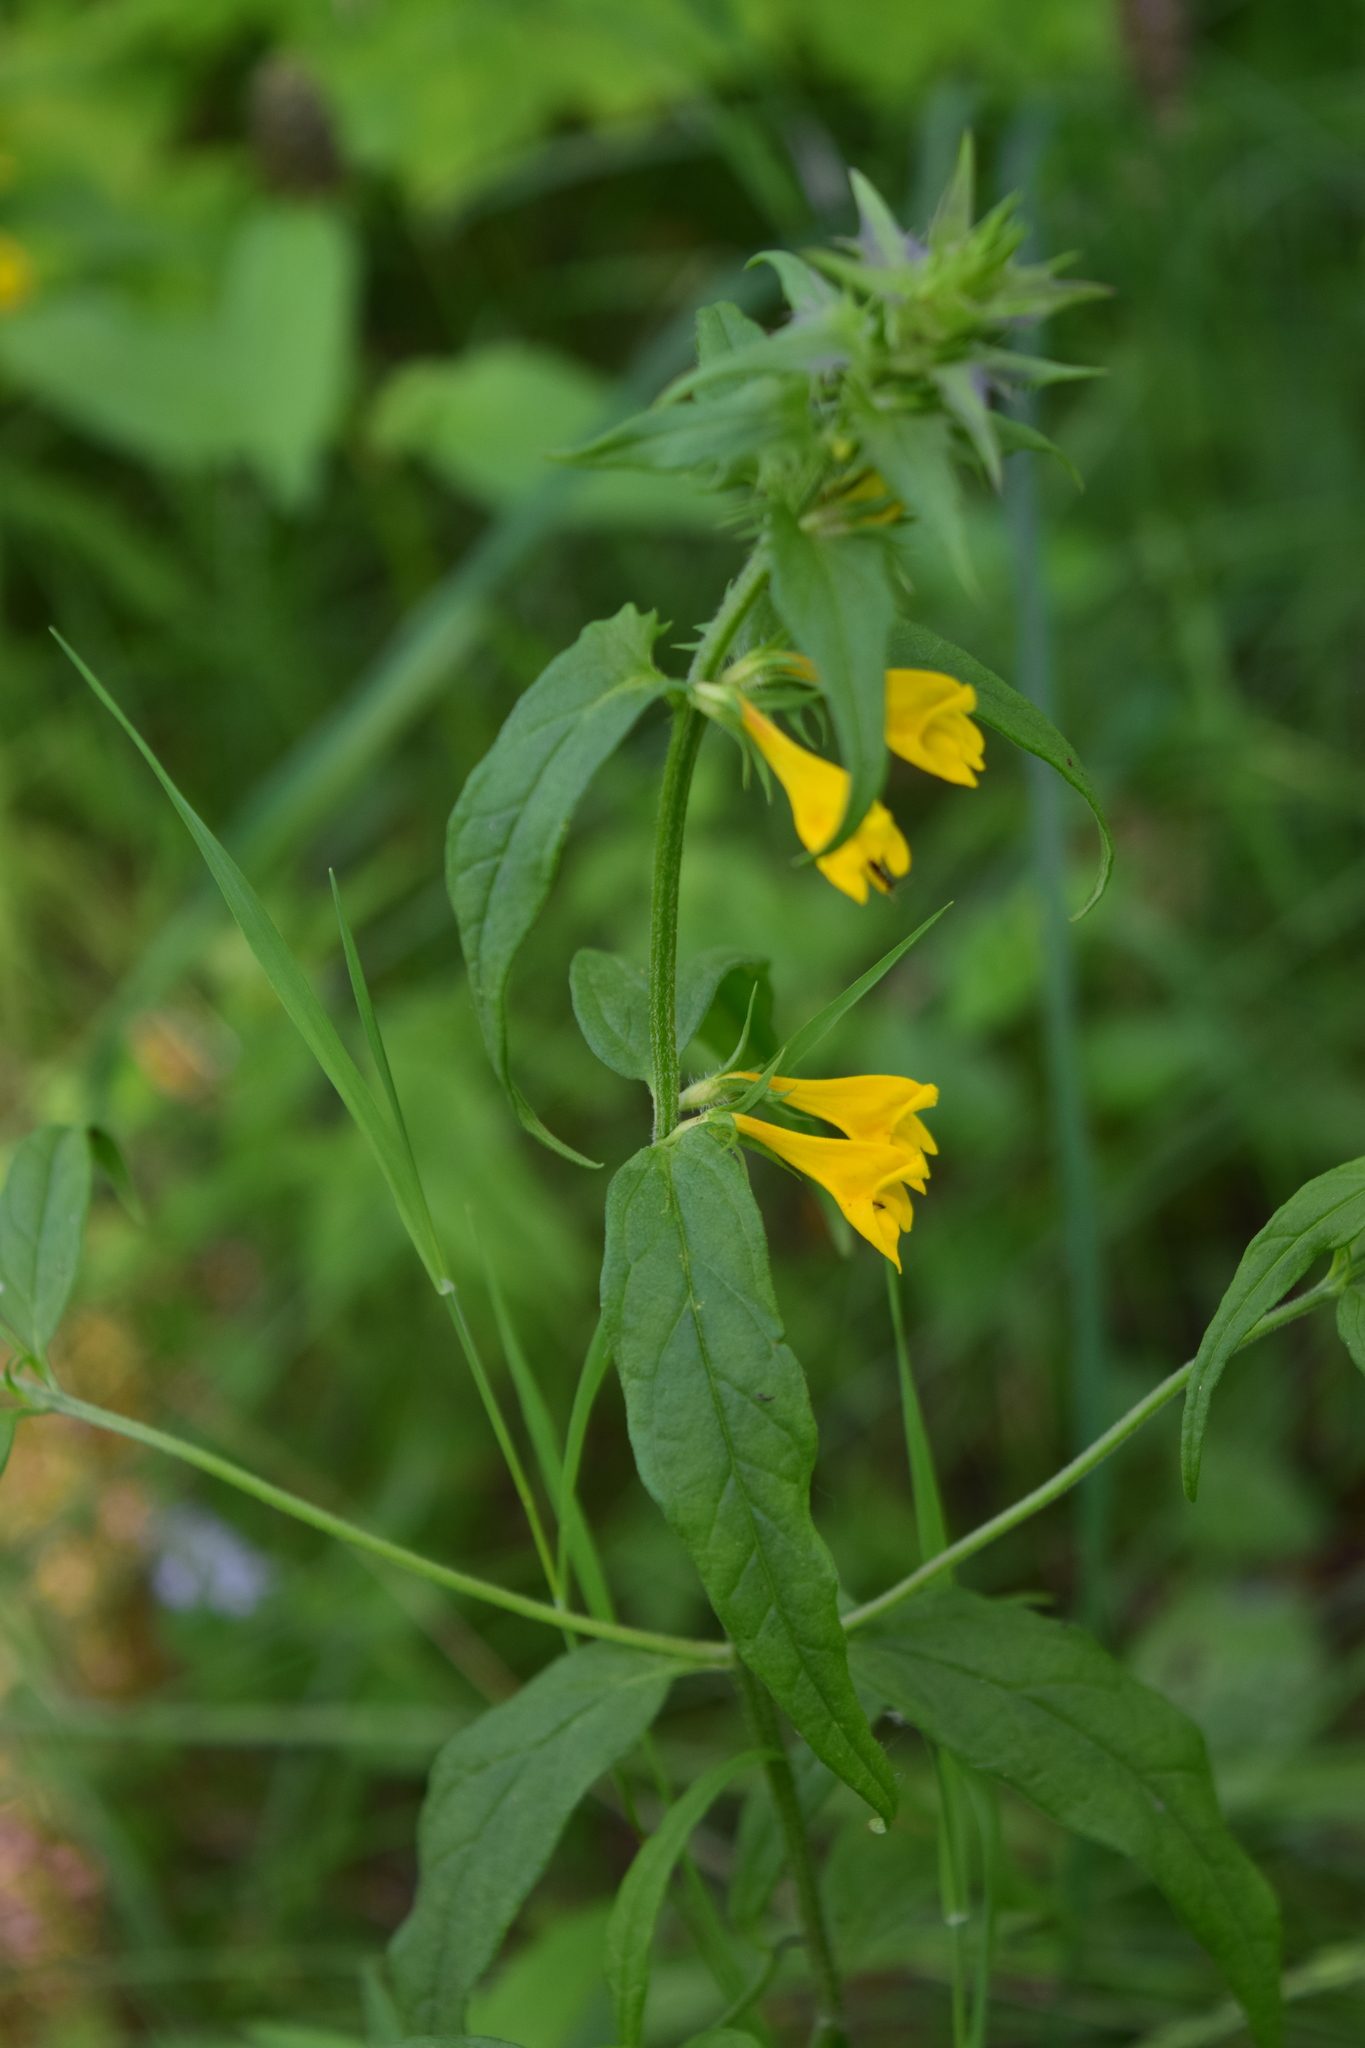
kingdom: Plantae
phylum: Tracheophyta
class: Magnoliopsida
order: Lamiales
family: Orobanchaceae
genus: Melampyrum
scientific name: Melampyrum nemorosum
